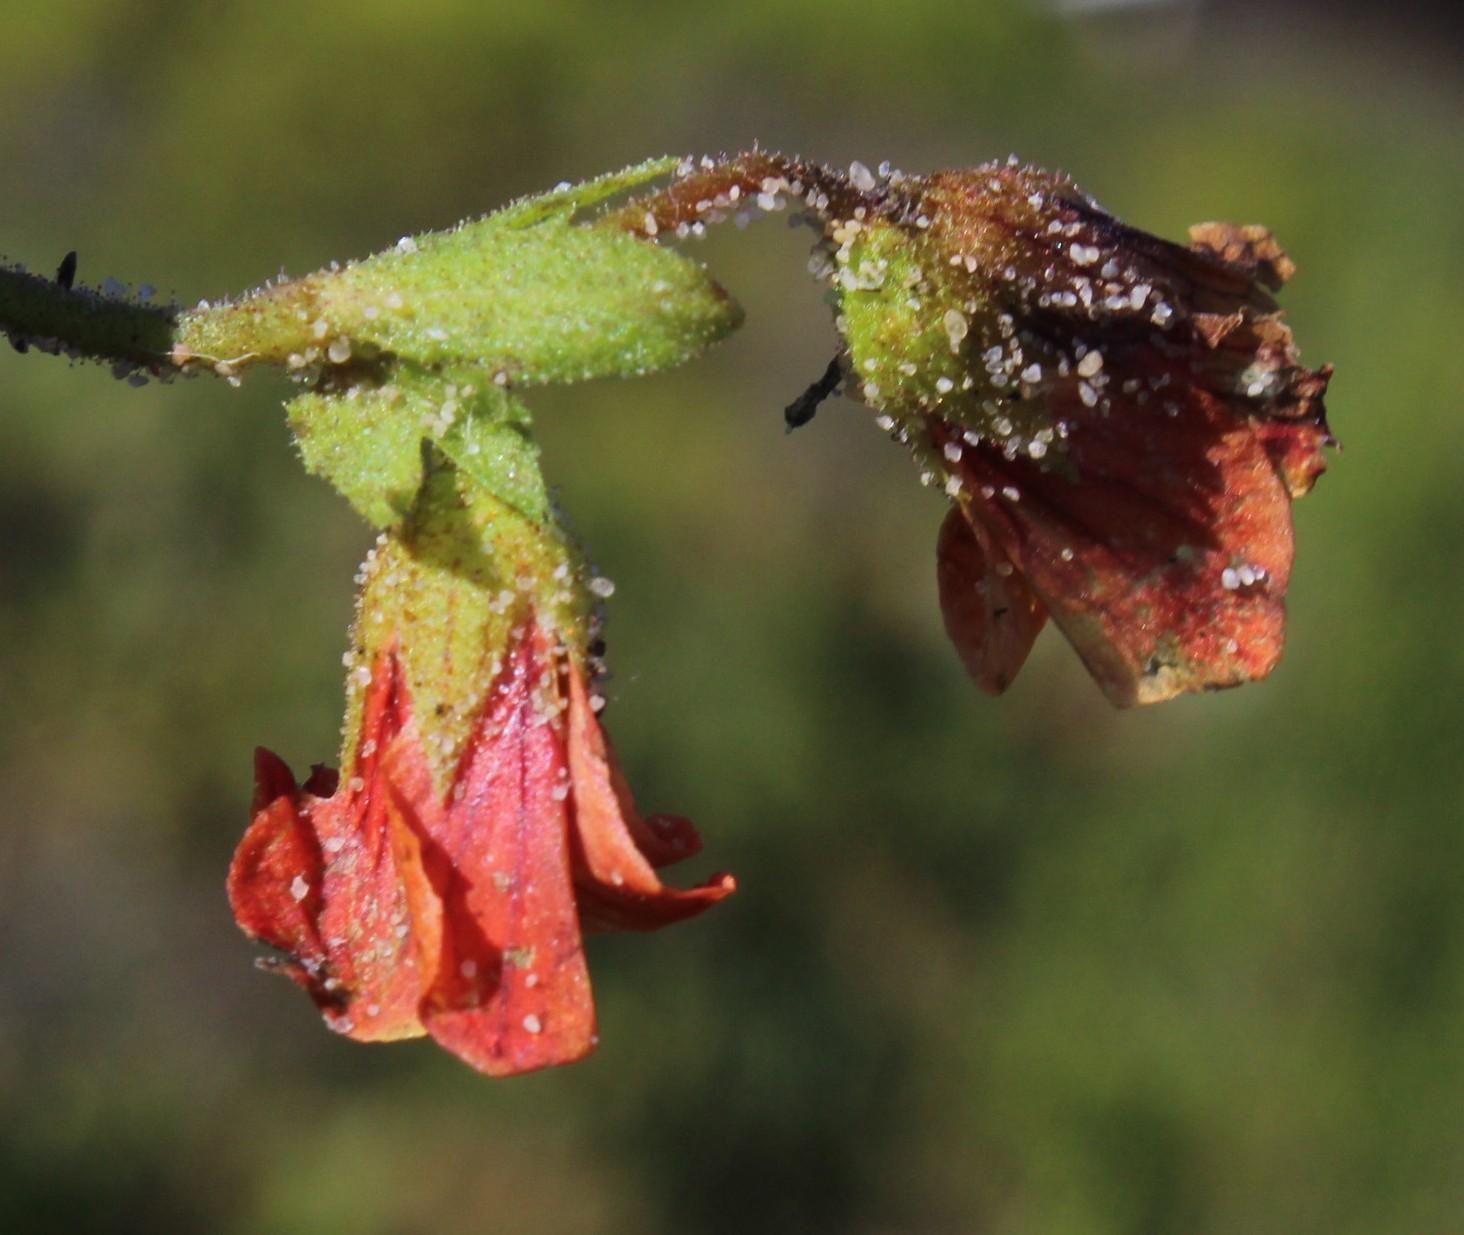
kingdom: Plantae
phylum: Tracheophyta
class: Magnoliopsida
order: Malvales
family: Malvaceae
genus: Hermannia
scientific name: Hermannia scabricaulis
